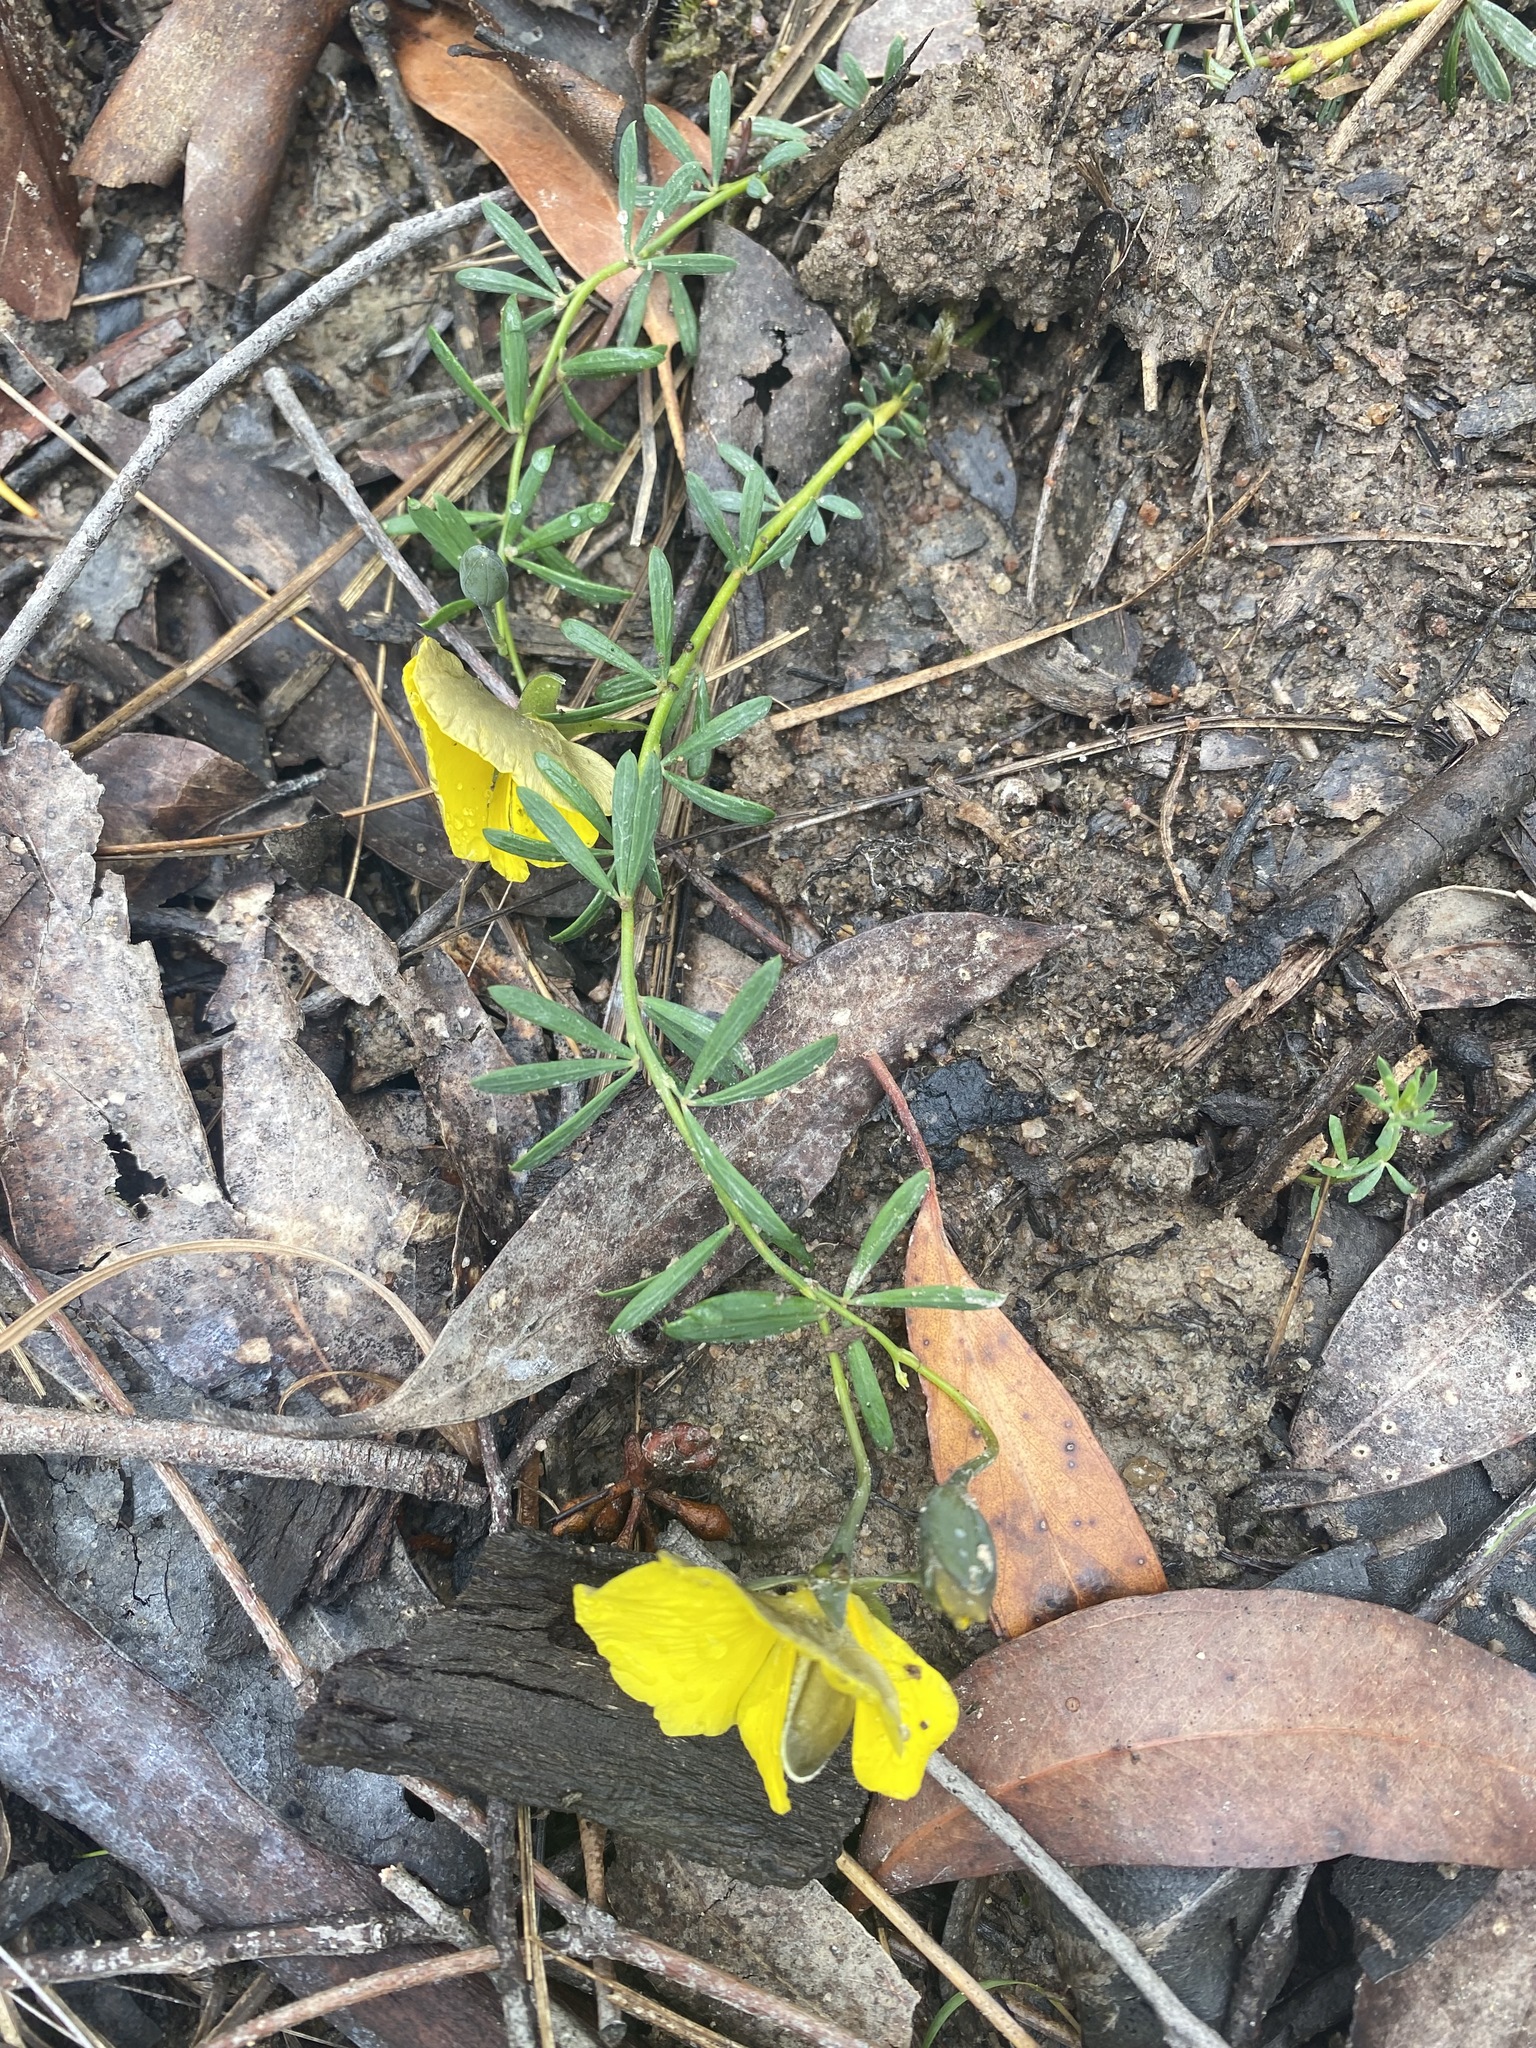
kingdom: Plantae
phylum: Tracheophyta
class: Magnoliopsida
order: Fabales
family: Fabaceae
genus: Gompholobium
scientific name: Gompholobium huegelii
